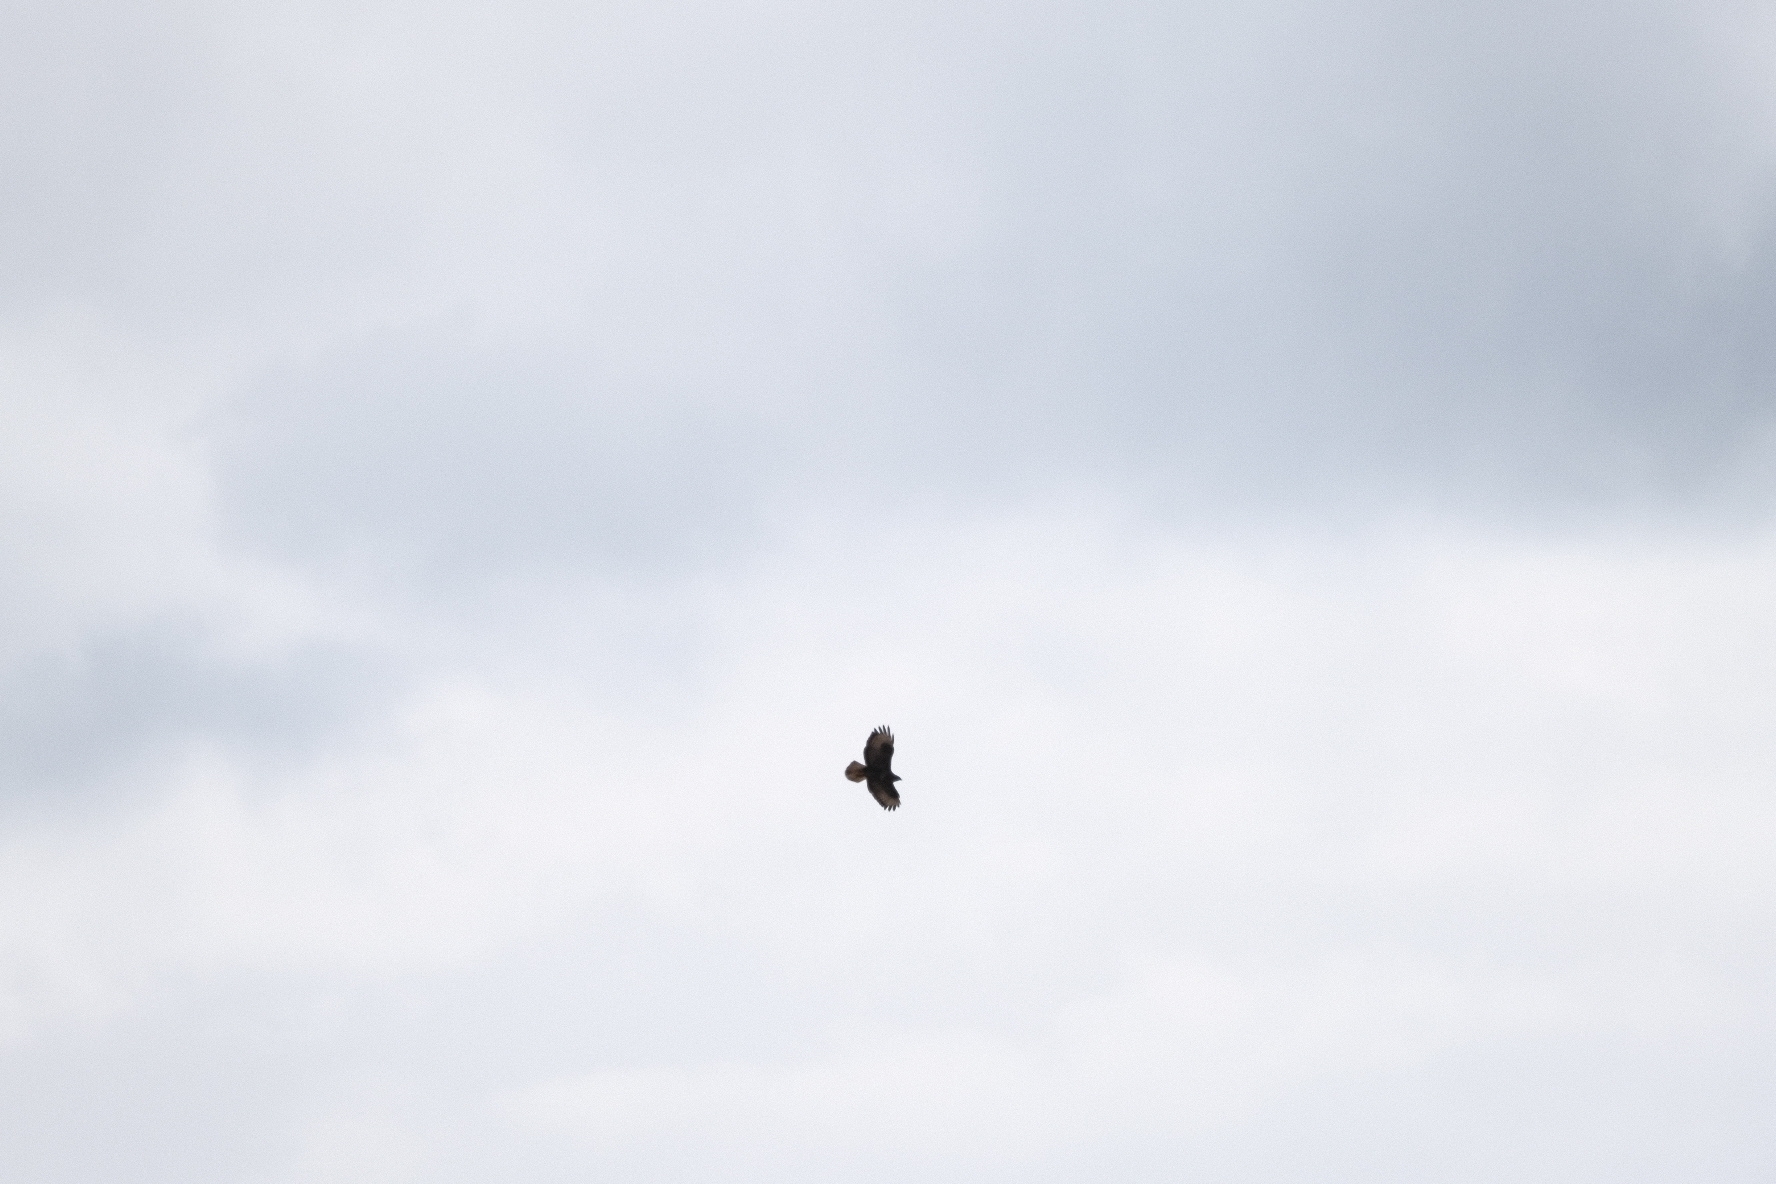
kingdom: Animalia
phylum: Chordata
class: Aves
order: Accipitriformes
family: Accipitridae
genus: Buteo
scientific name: Buteo buteo
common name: Common buzzard
